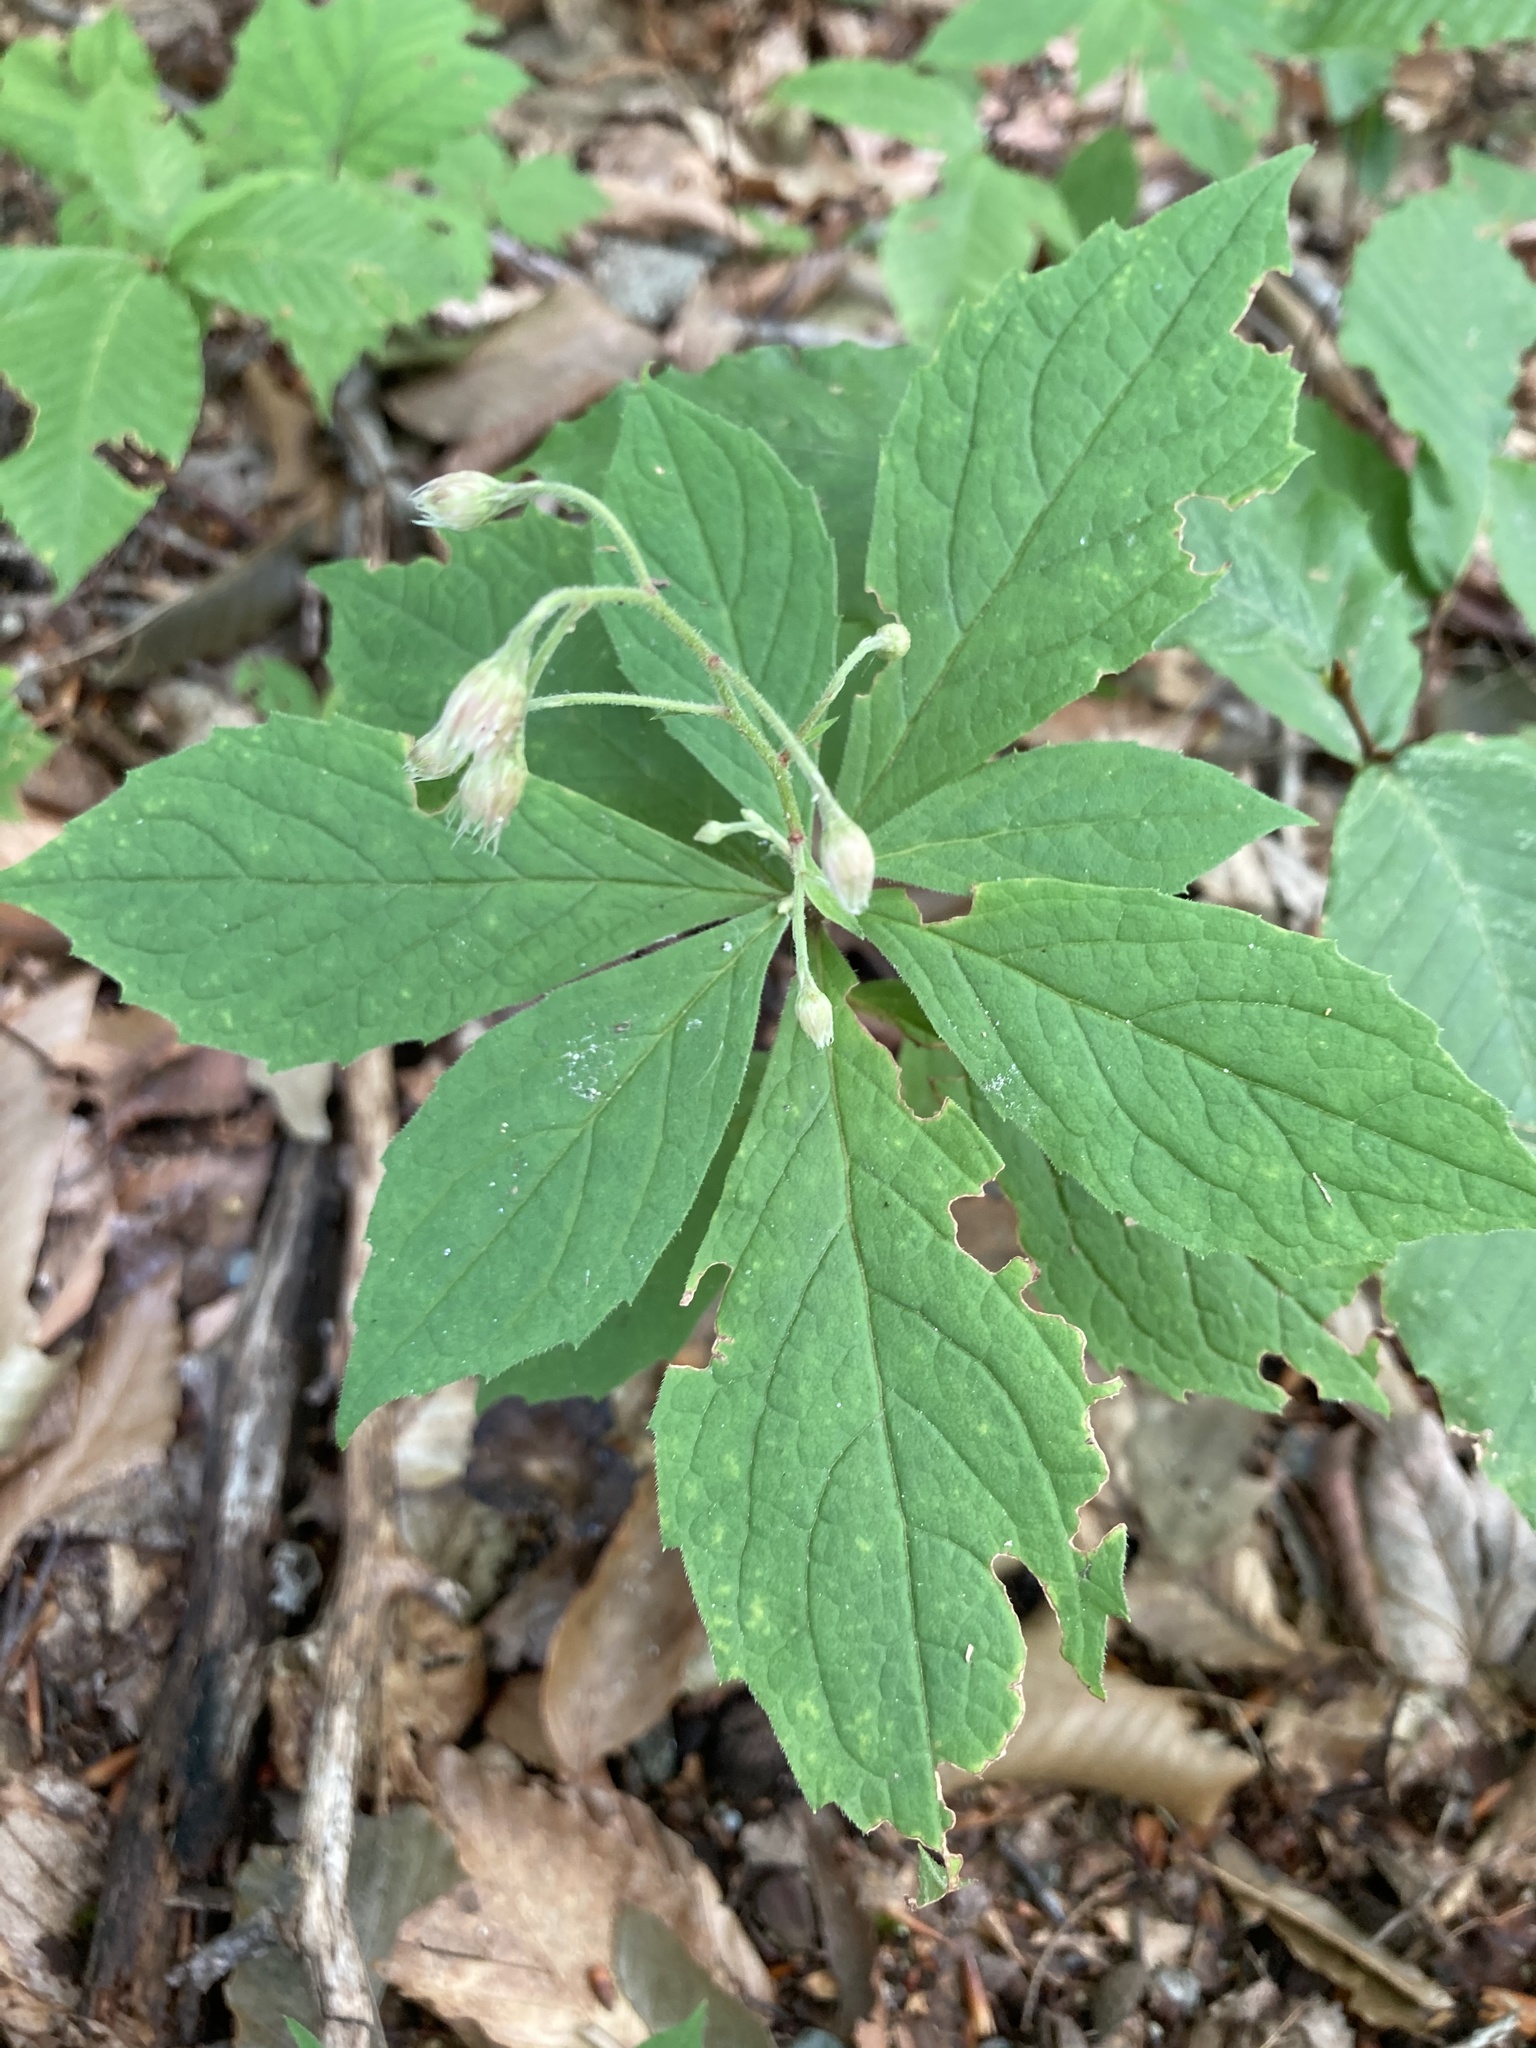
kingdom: Plantae
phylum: Tracheophyta
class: Magnoliopsida
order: Asterales
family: Asteraceae
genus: Oclemena
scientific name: Oclemena acuminata
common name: Mountain aster
